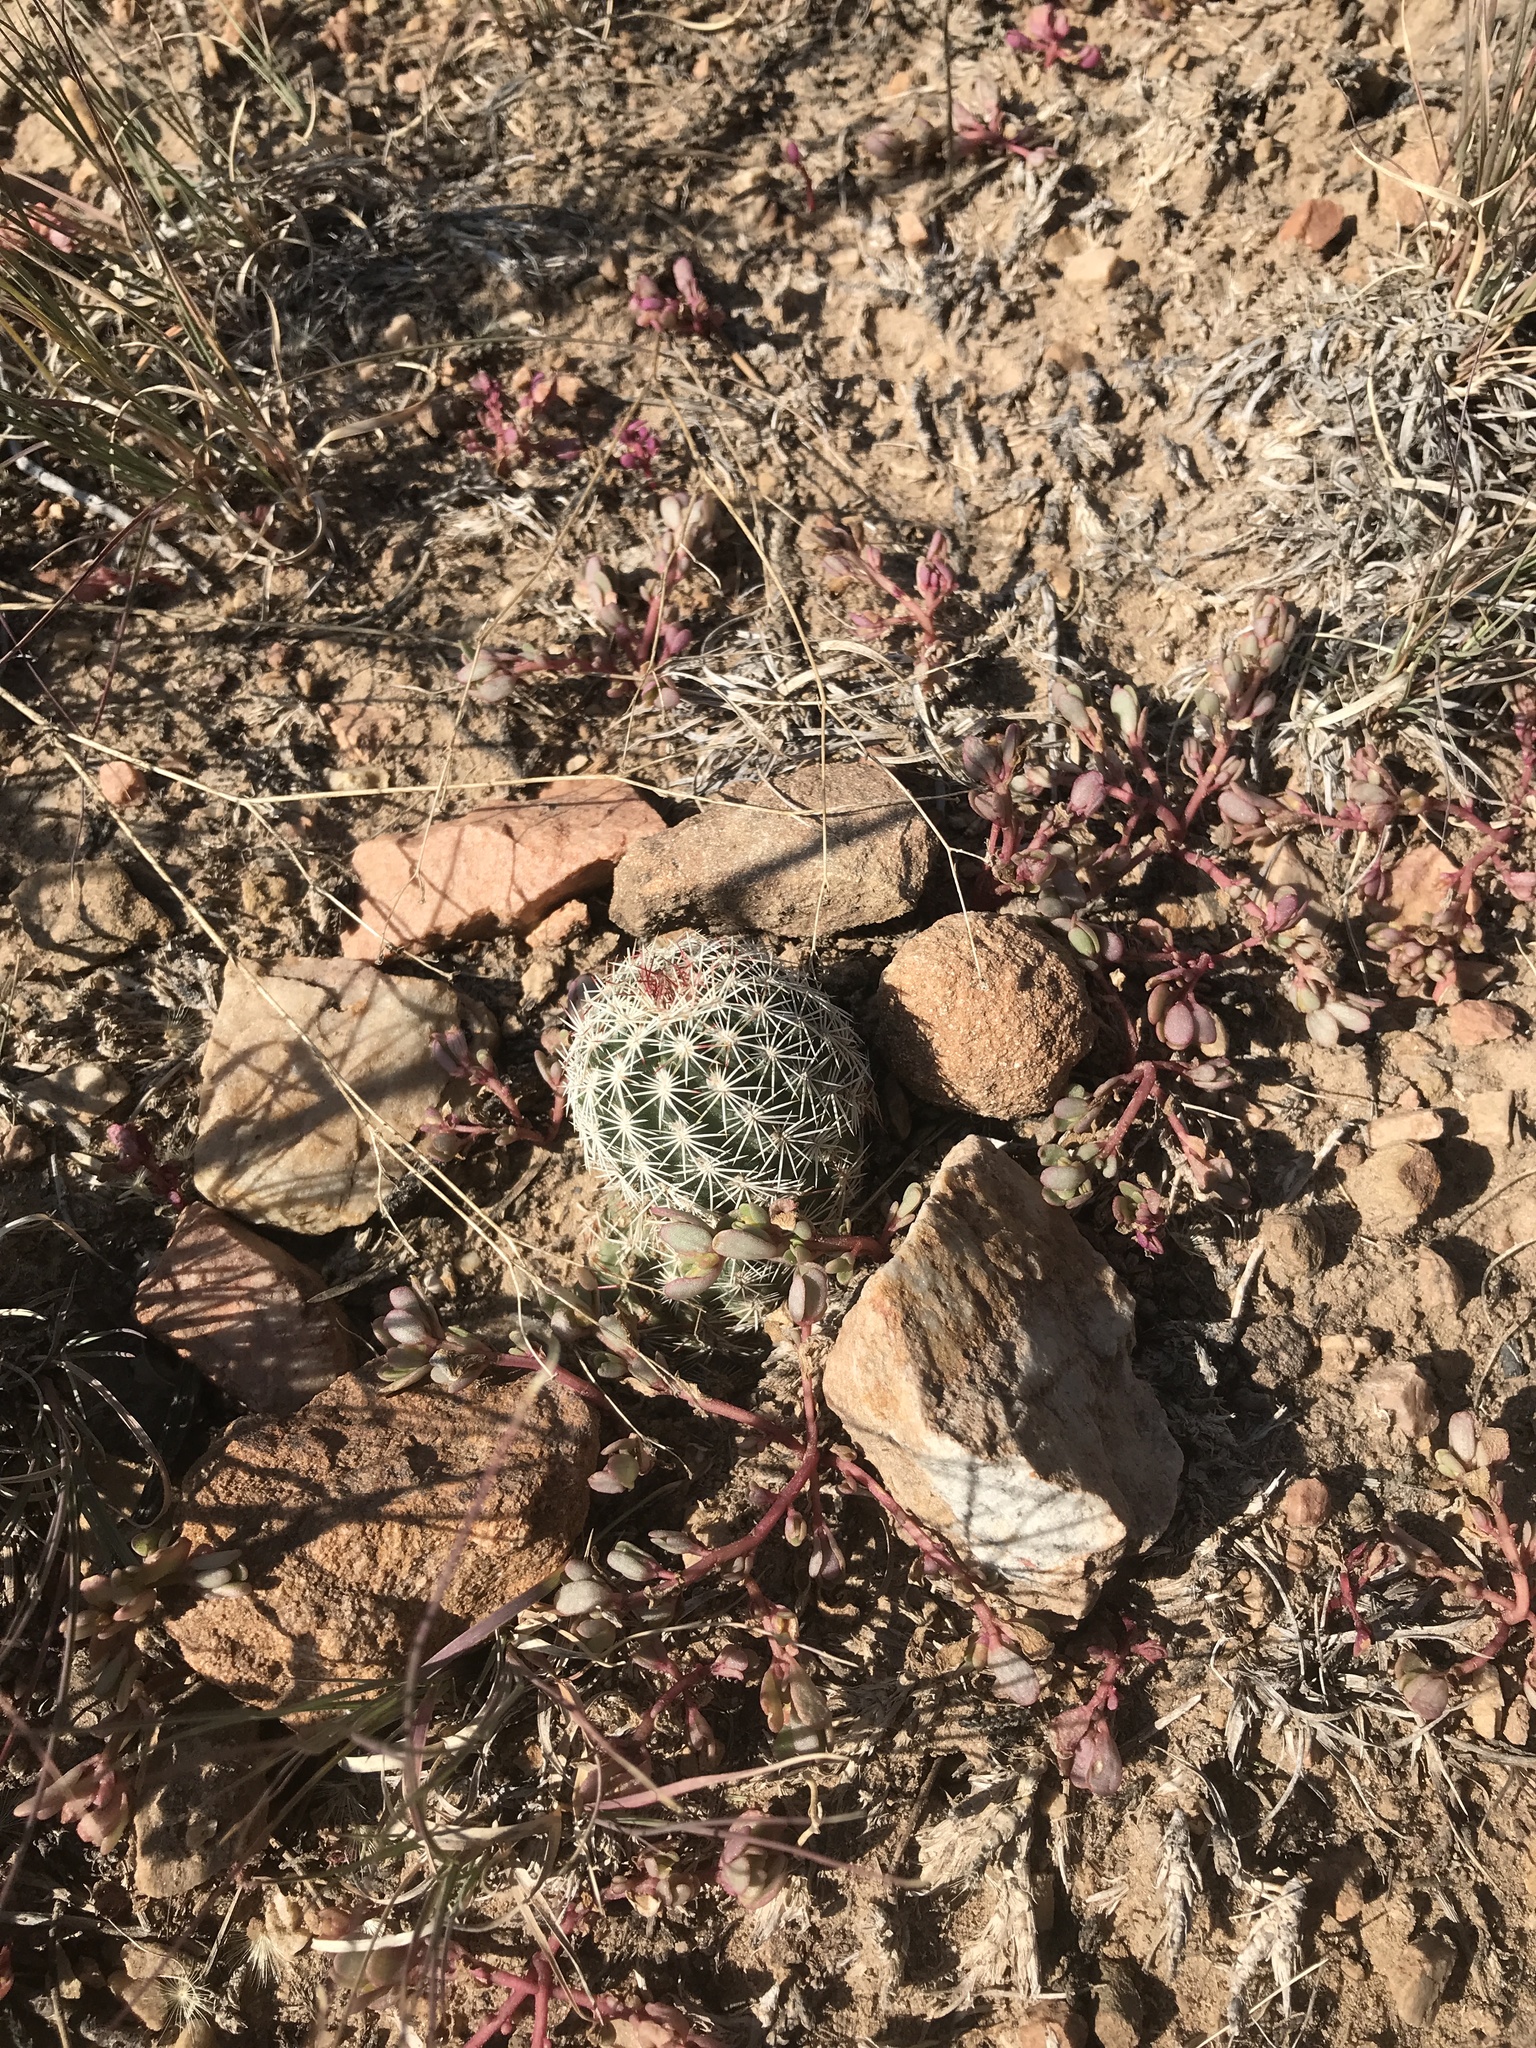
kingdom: Plantae
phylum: Tracheophyta
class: Magnoliopsida
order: Caryophyllales
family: Cactaceae
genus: Echinocereus
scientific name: Echinocereus viridiflorus
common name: Nylon hedgehog cactus
